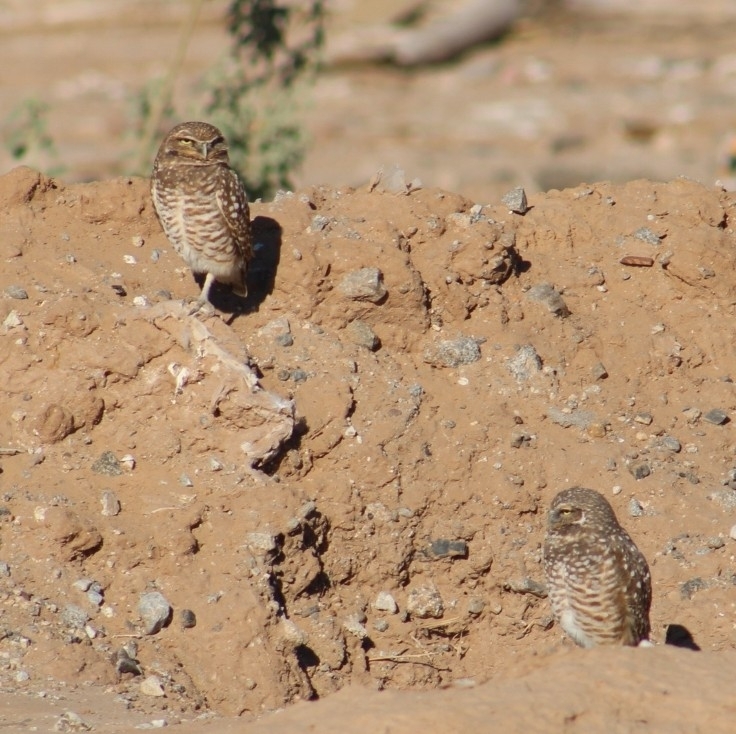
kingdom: Animalia
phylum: Chordata
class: Aves
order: Strigiformes
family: Strigidae
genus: Athene
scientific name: Athene cunicularia
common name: Burrowing owl
